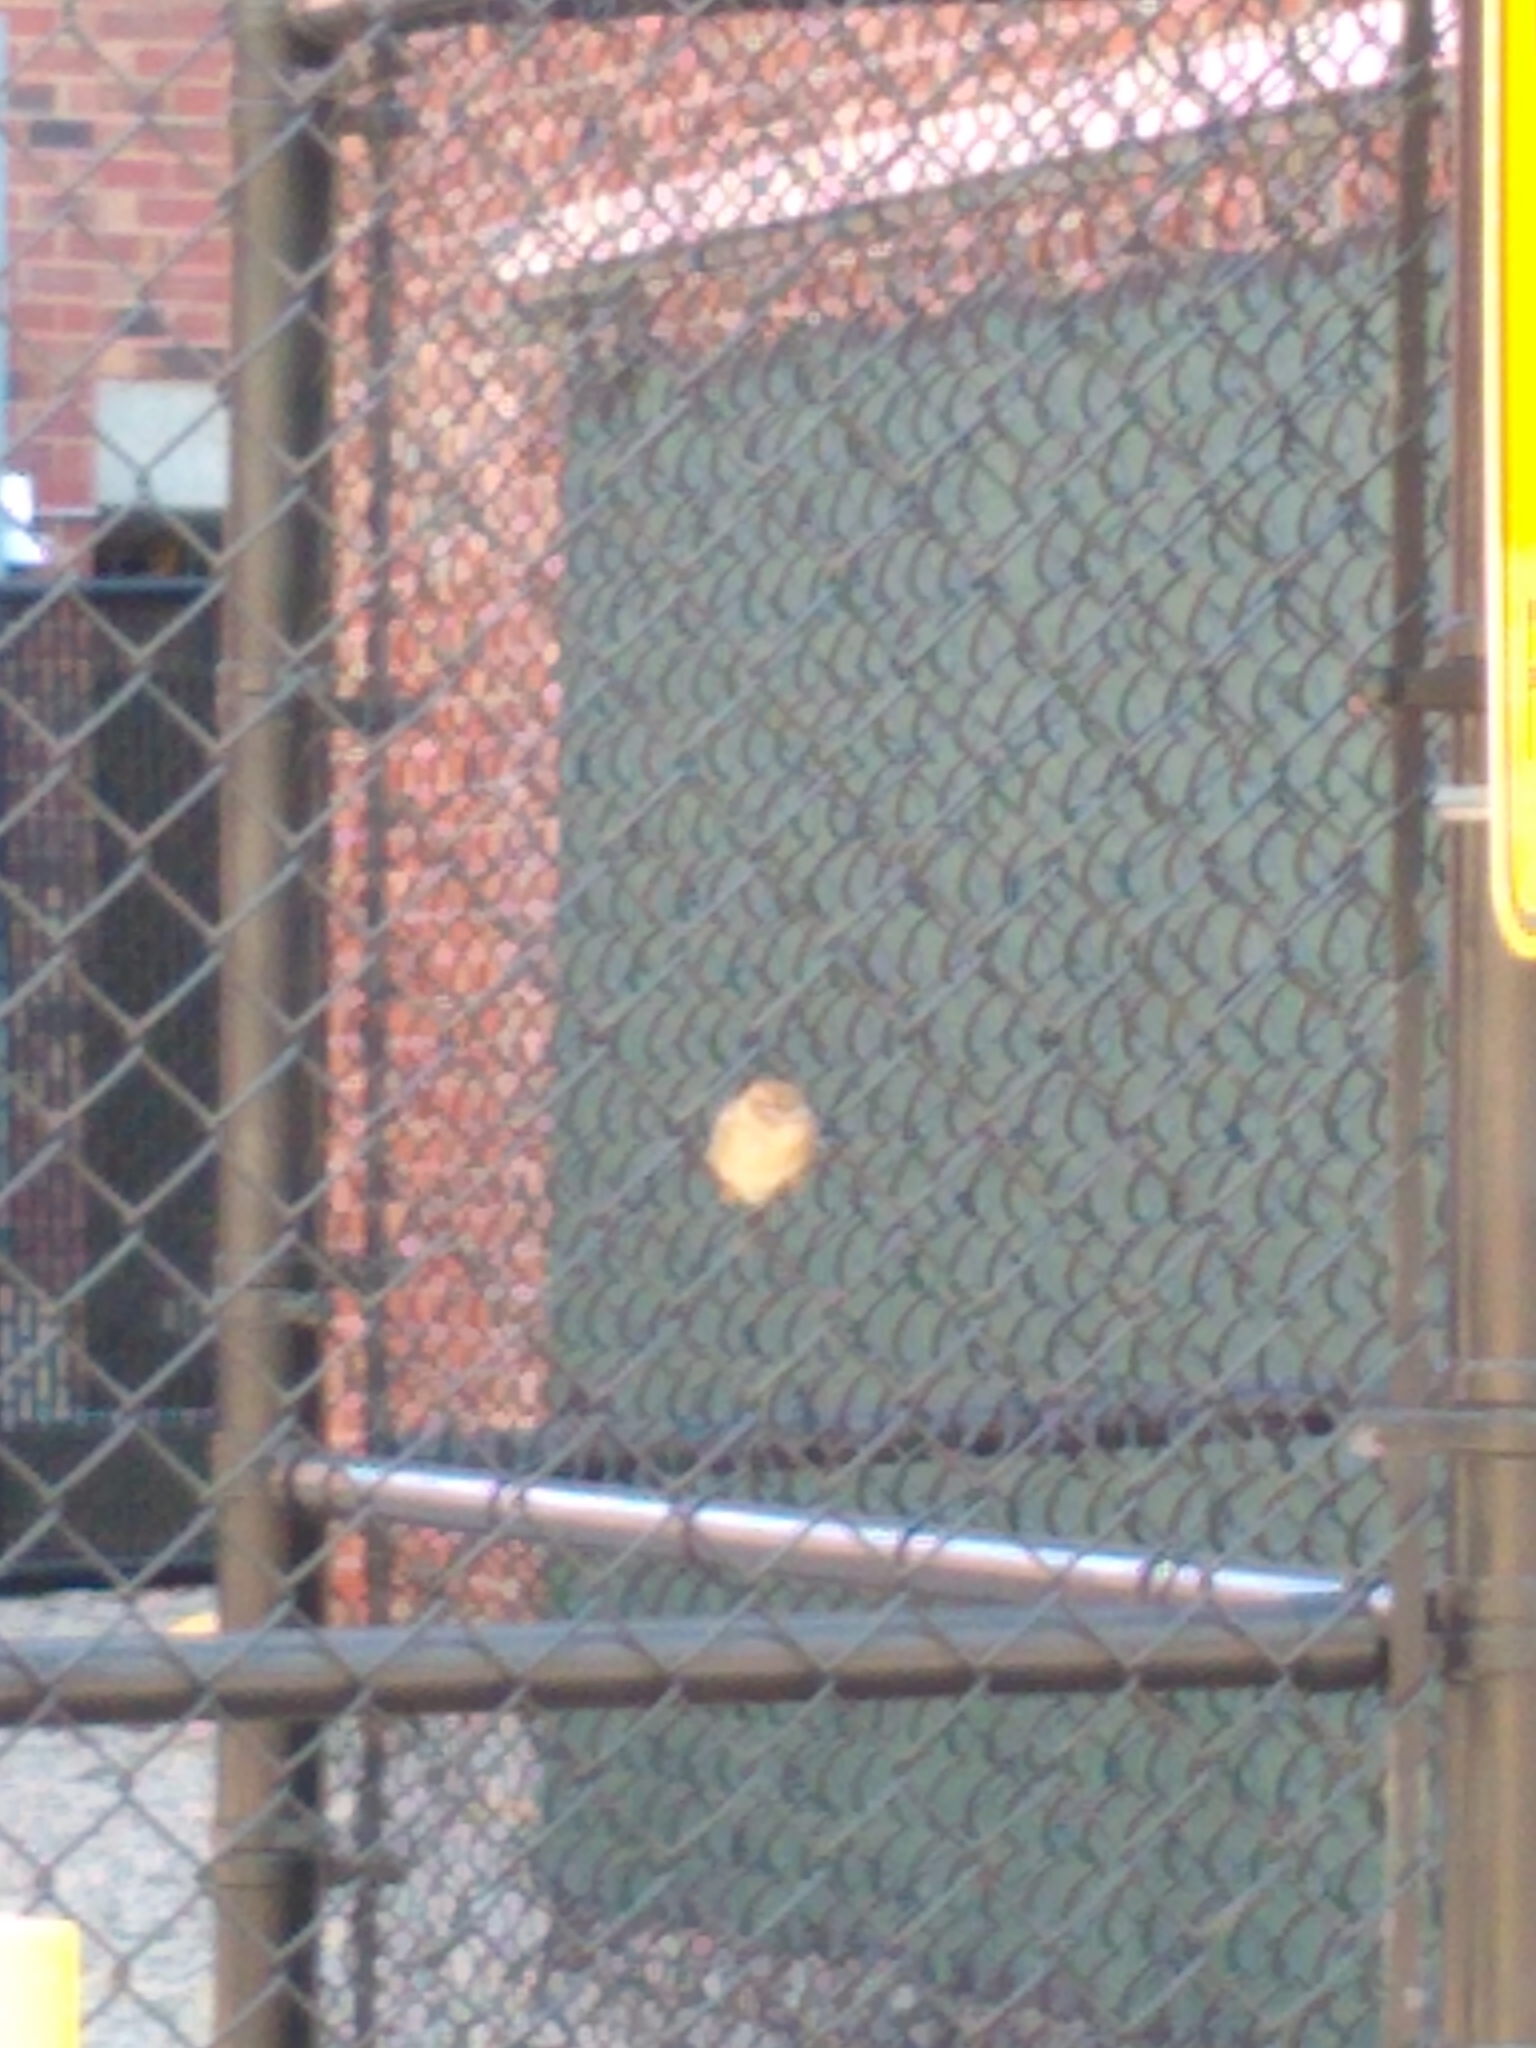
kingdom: Animalia
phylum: Chordata
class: Aves
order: Passeriformes
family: Passeridae
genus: Passer
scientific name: Passer domesticus
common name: House sparrow
